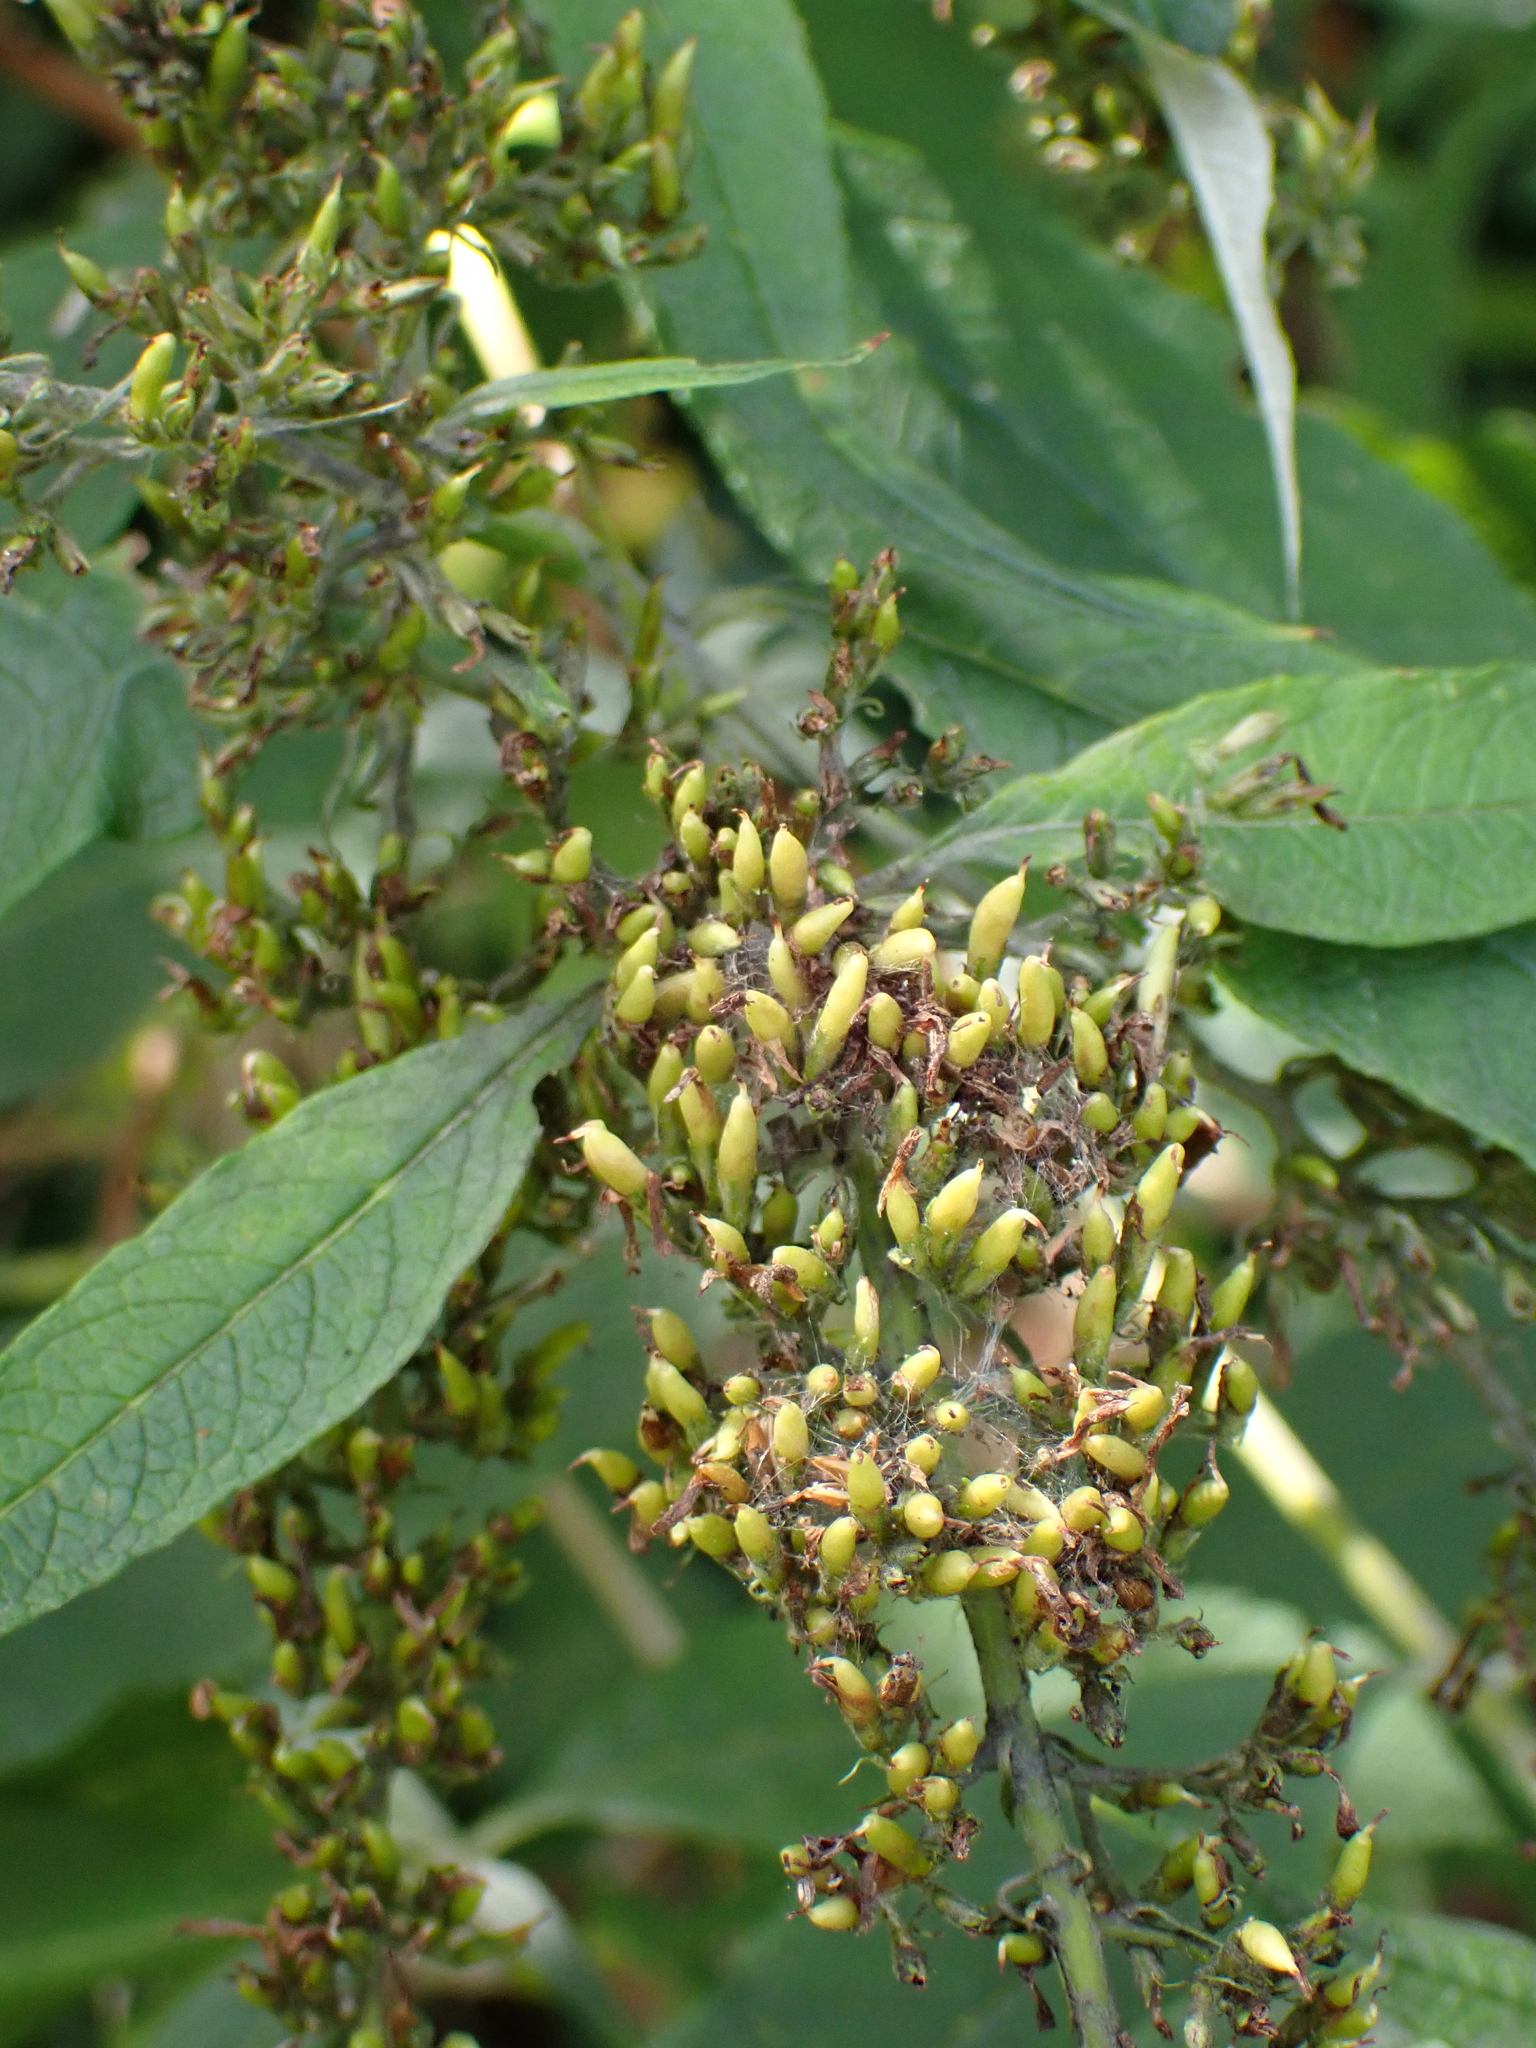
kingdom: Plantae
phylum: Tracheophyta
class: Magnoliopsida
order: Lamiales
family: Scrophulariaceae
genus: Buddleja
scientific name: Buddleja davidii
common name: Butterfly-bush
